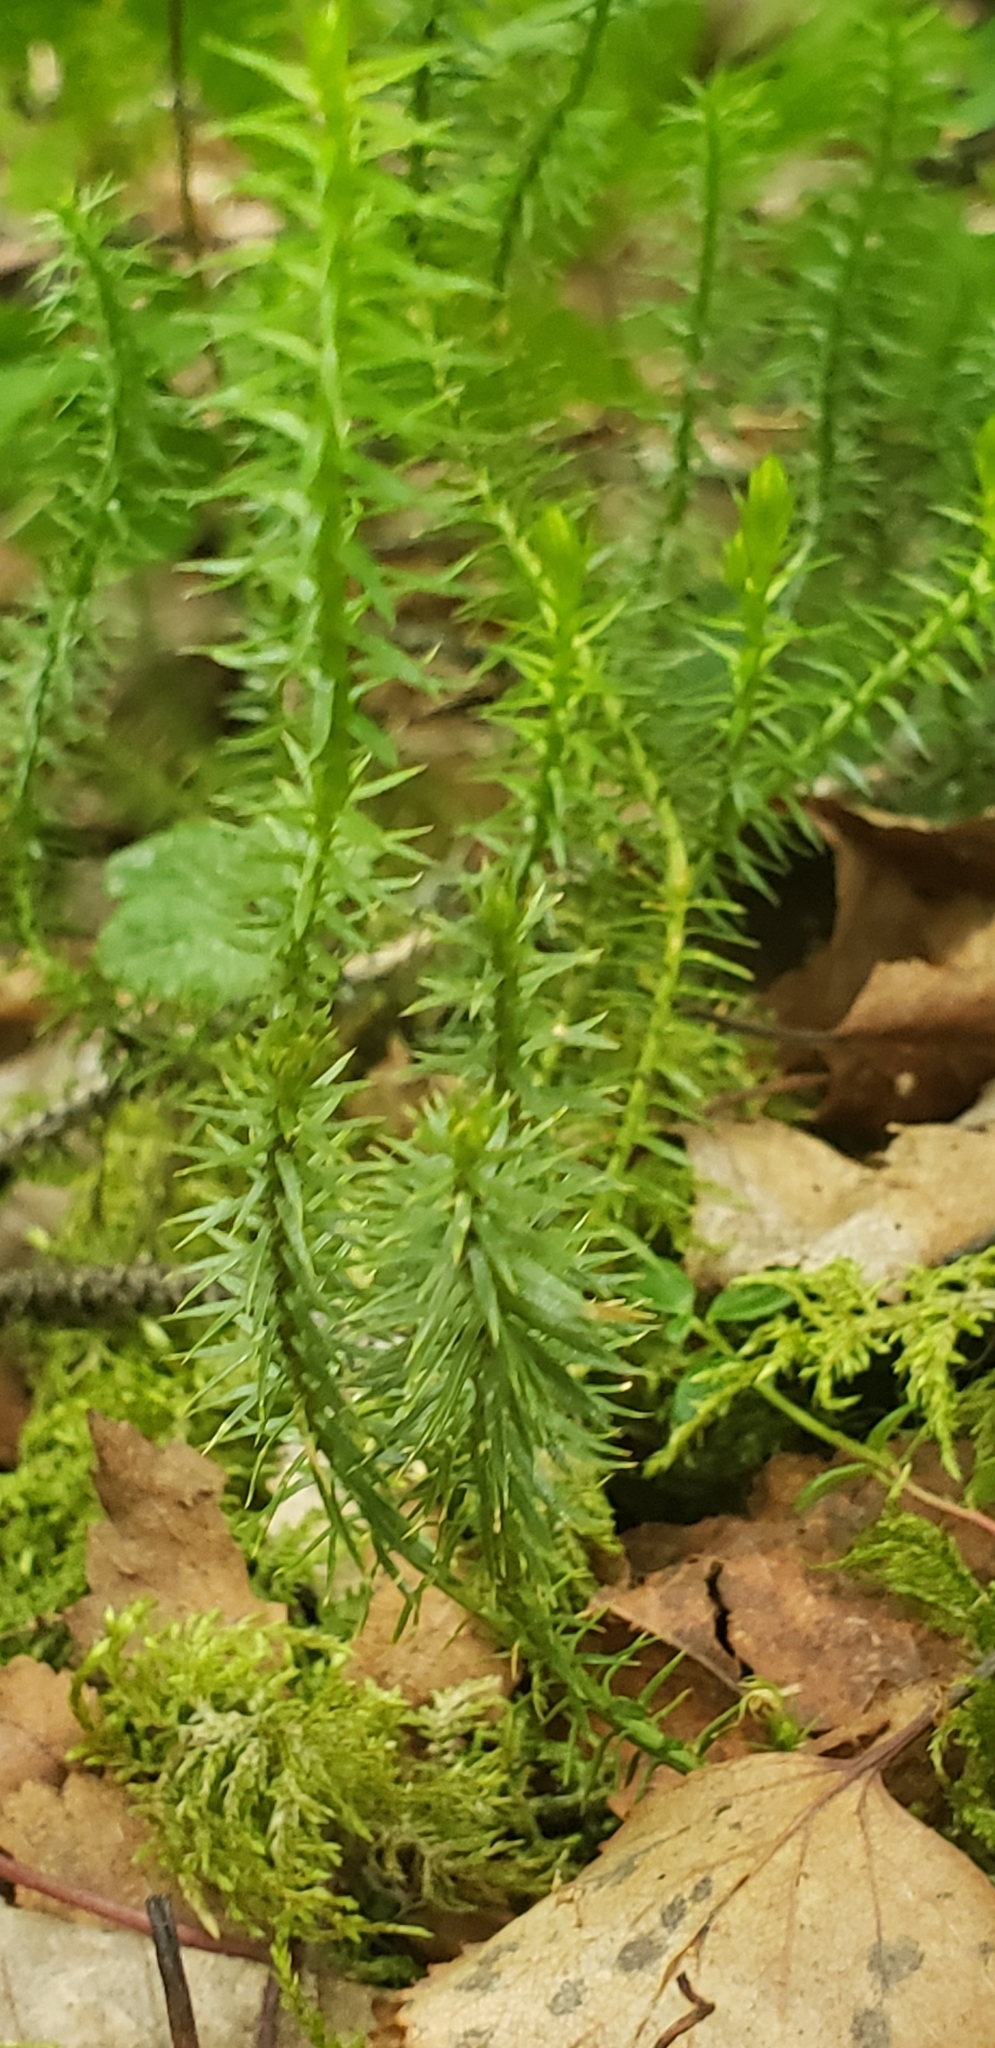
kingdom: Plantae
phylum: Tracheophyta
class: Lycopodiopsida
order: Lycopodiales
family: Lycopodiaceae
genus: Spinulum
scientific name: Spinulum annotinum
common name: Interrupted club-moss
